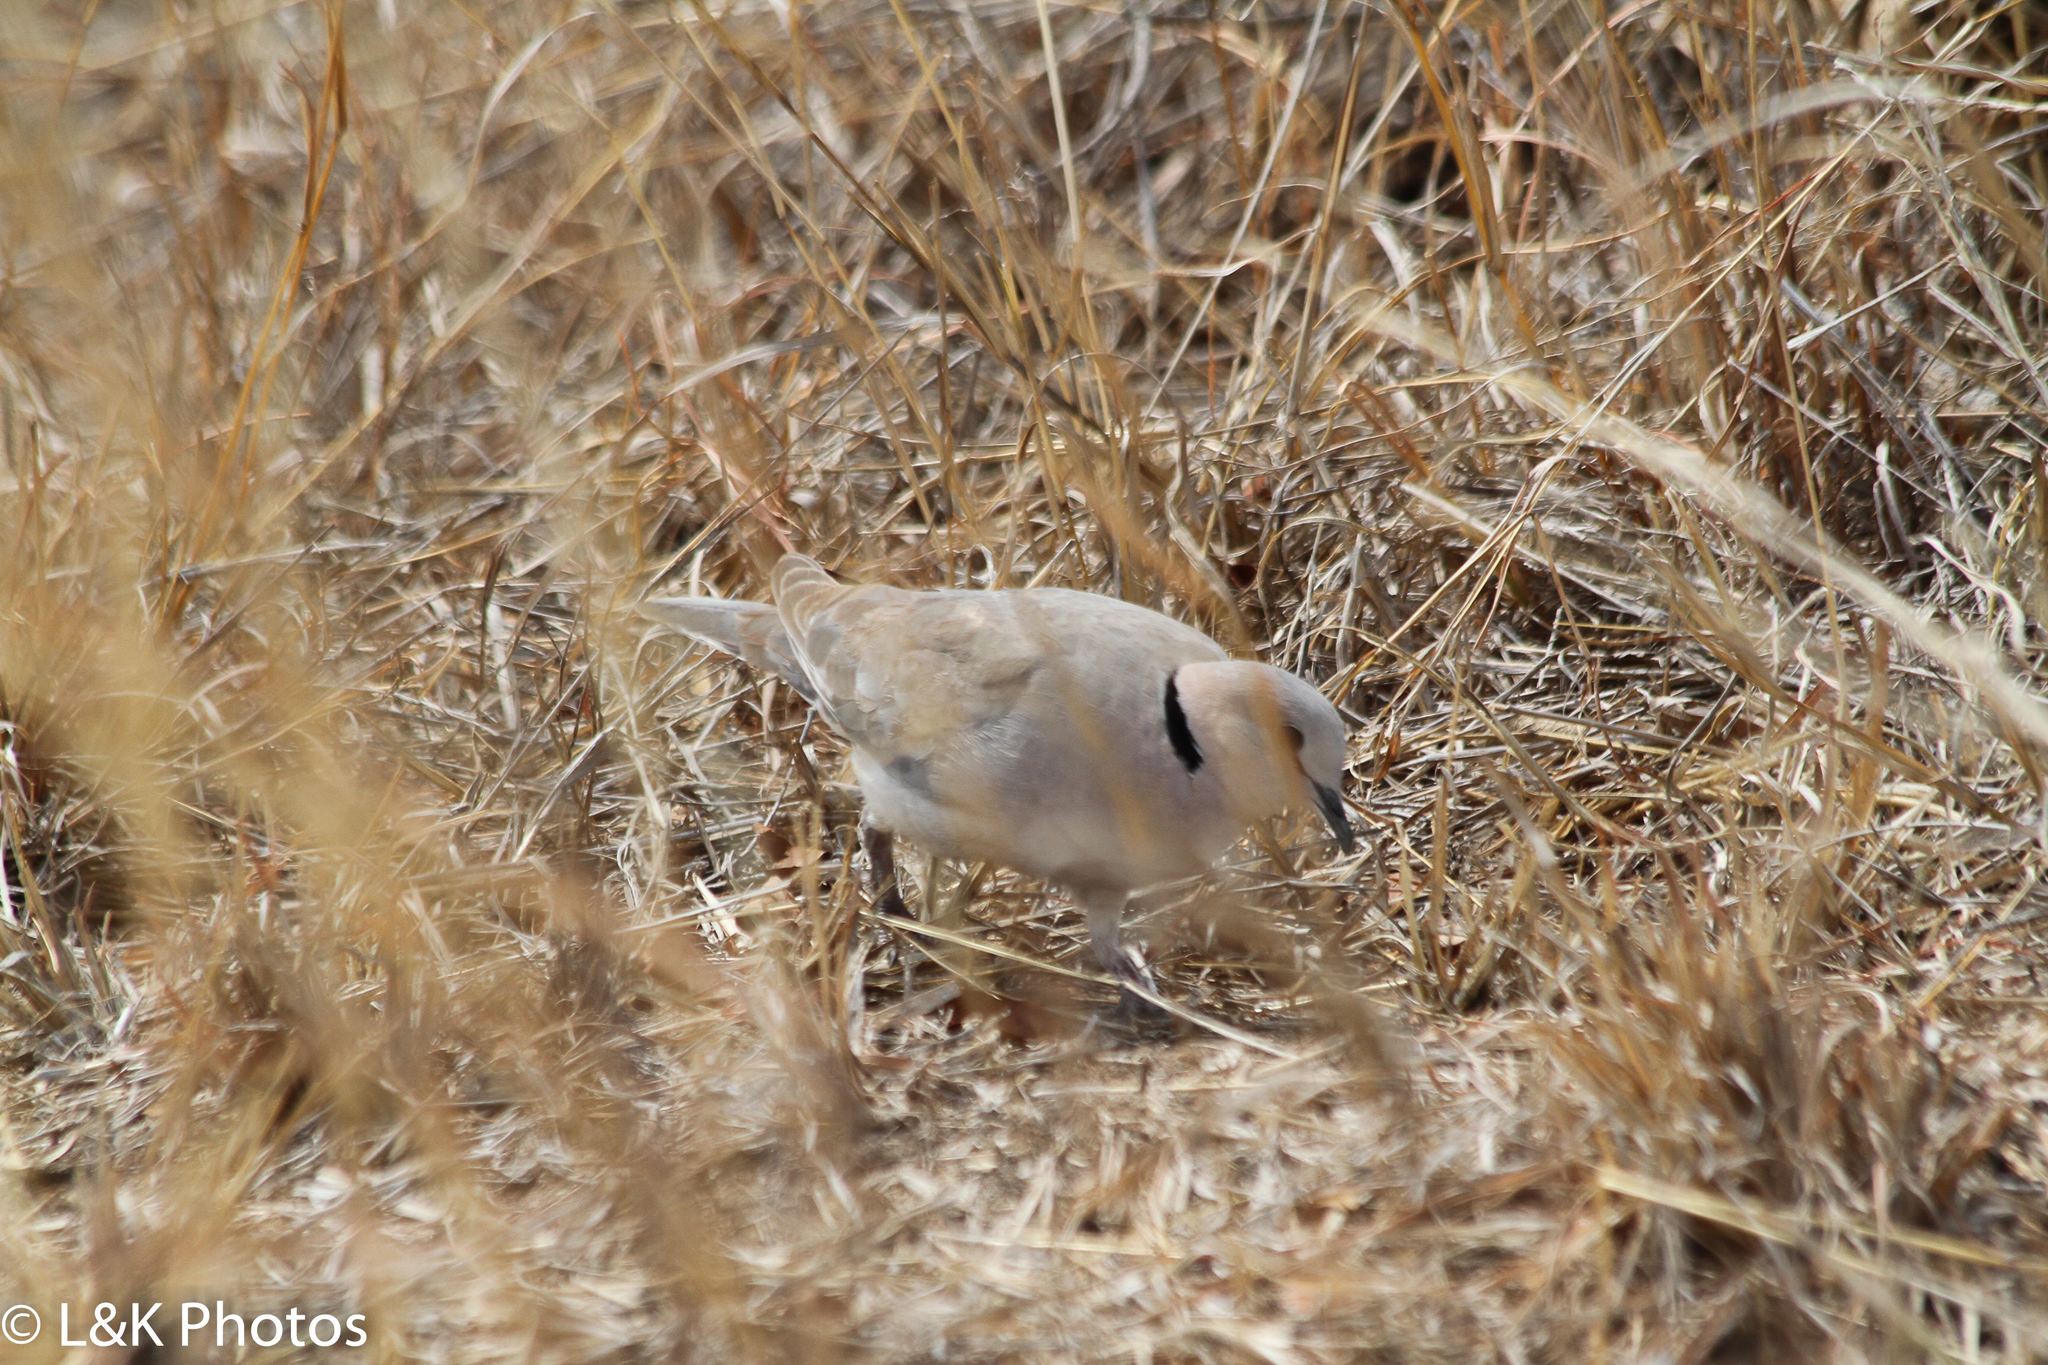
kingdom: Animalia
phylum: Chordata
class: Aves
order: Columbiformes
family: Columbidae
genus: Streptopelia
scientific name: Streptopelia capicola
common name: Ring-necked dove
